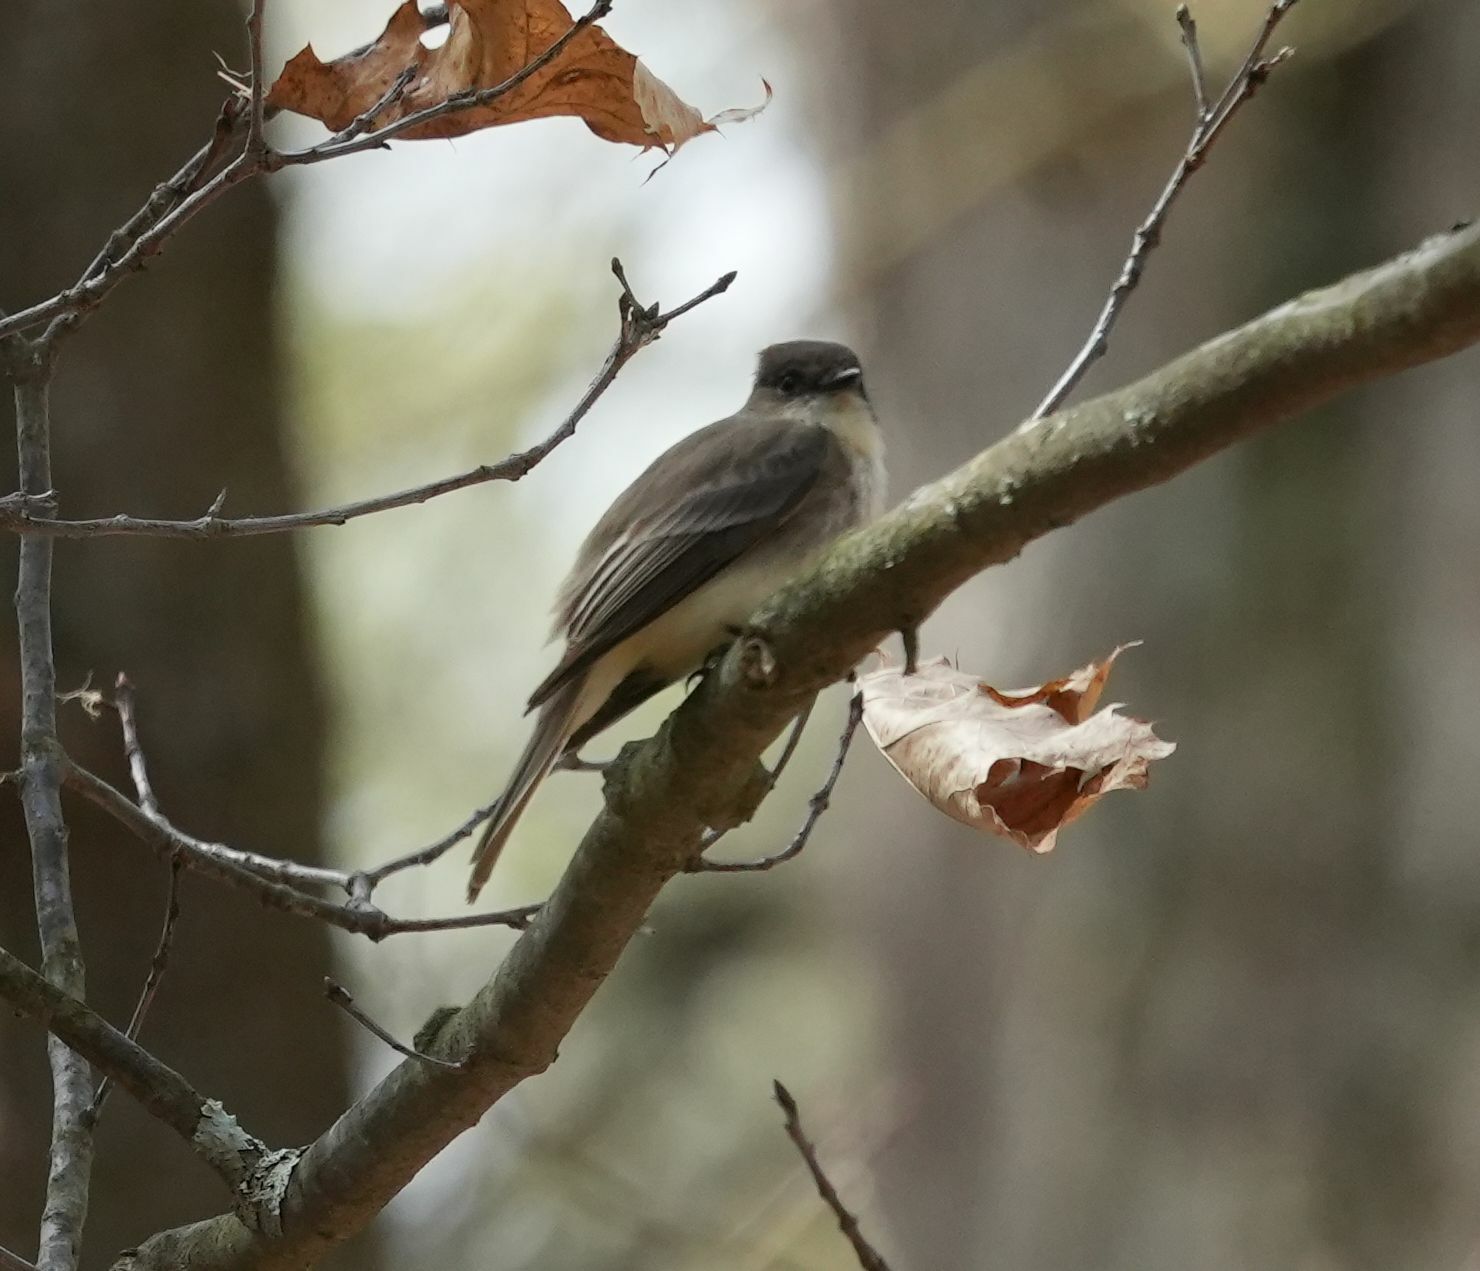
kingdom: Animalia
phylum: Chordata
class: Aves
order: Passeriformes
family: Tyrannidae
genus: Sayornis
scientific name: Sayornis phoebe
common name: Eastern phoebe
